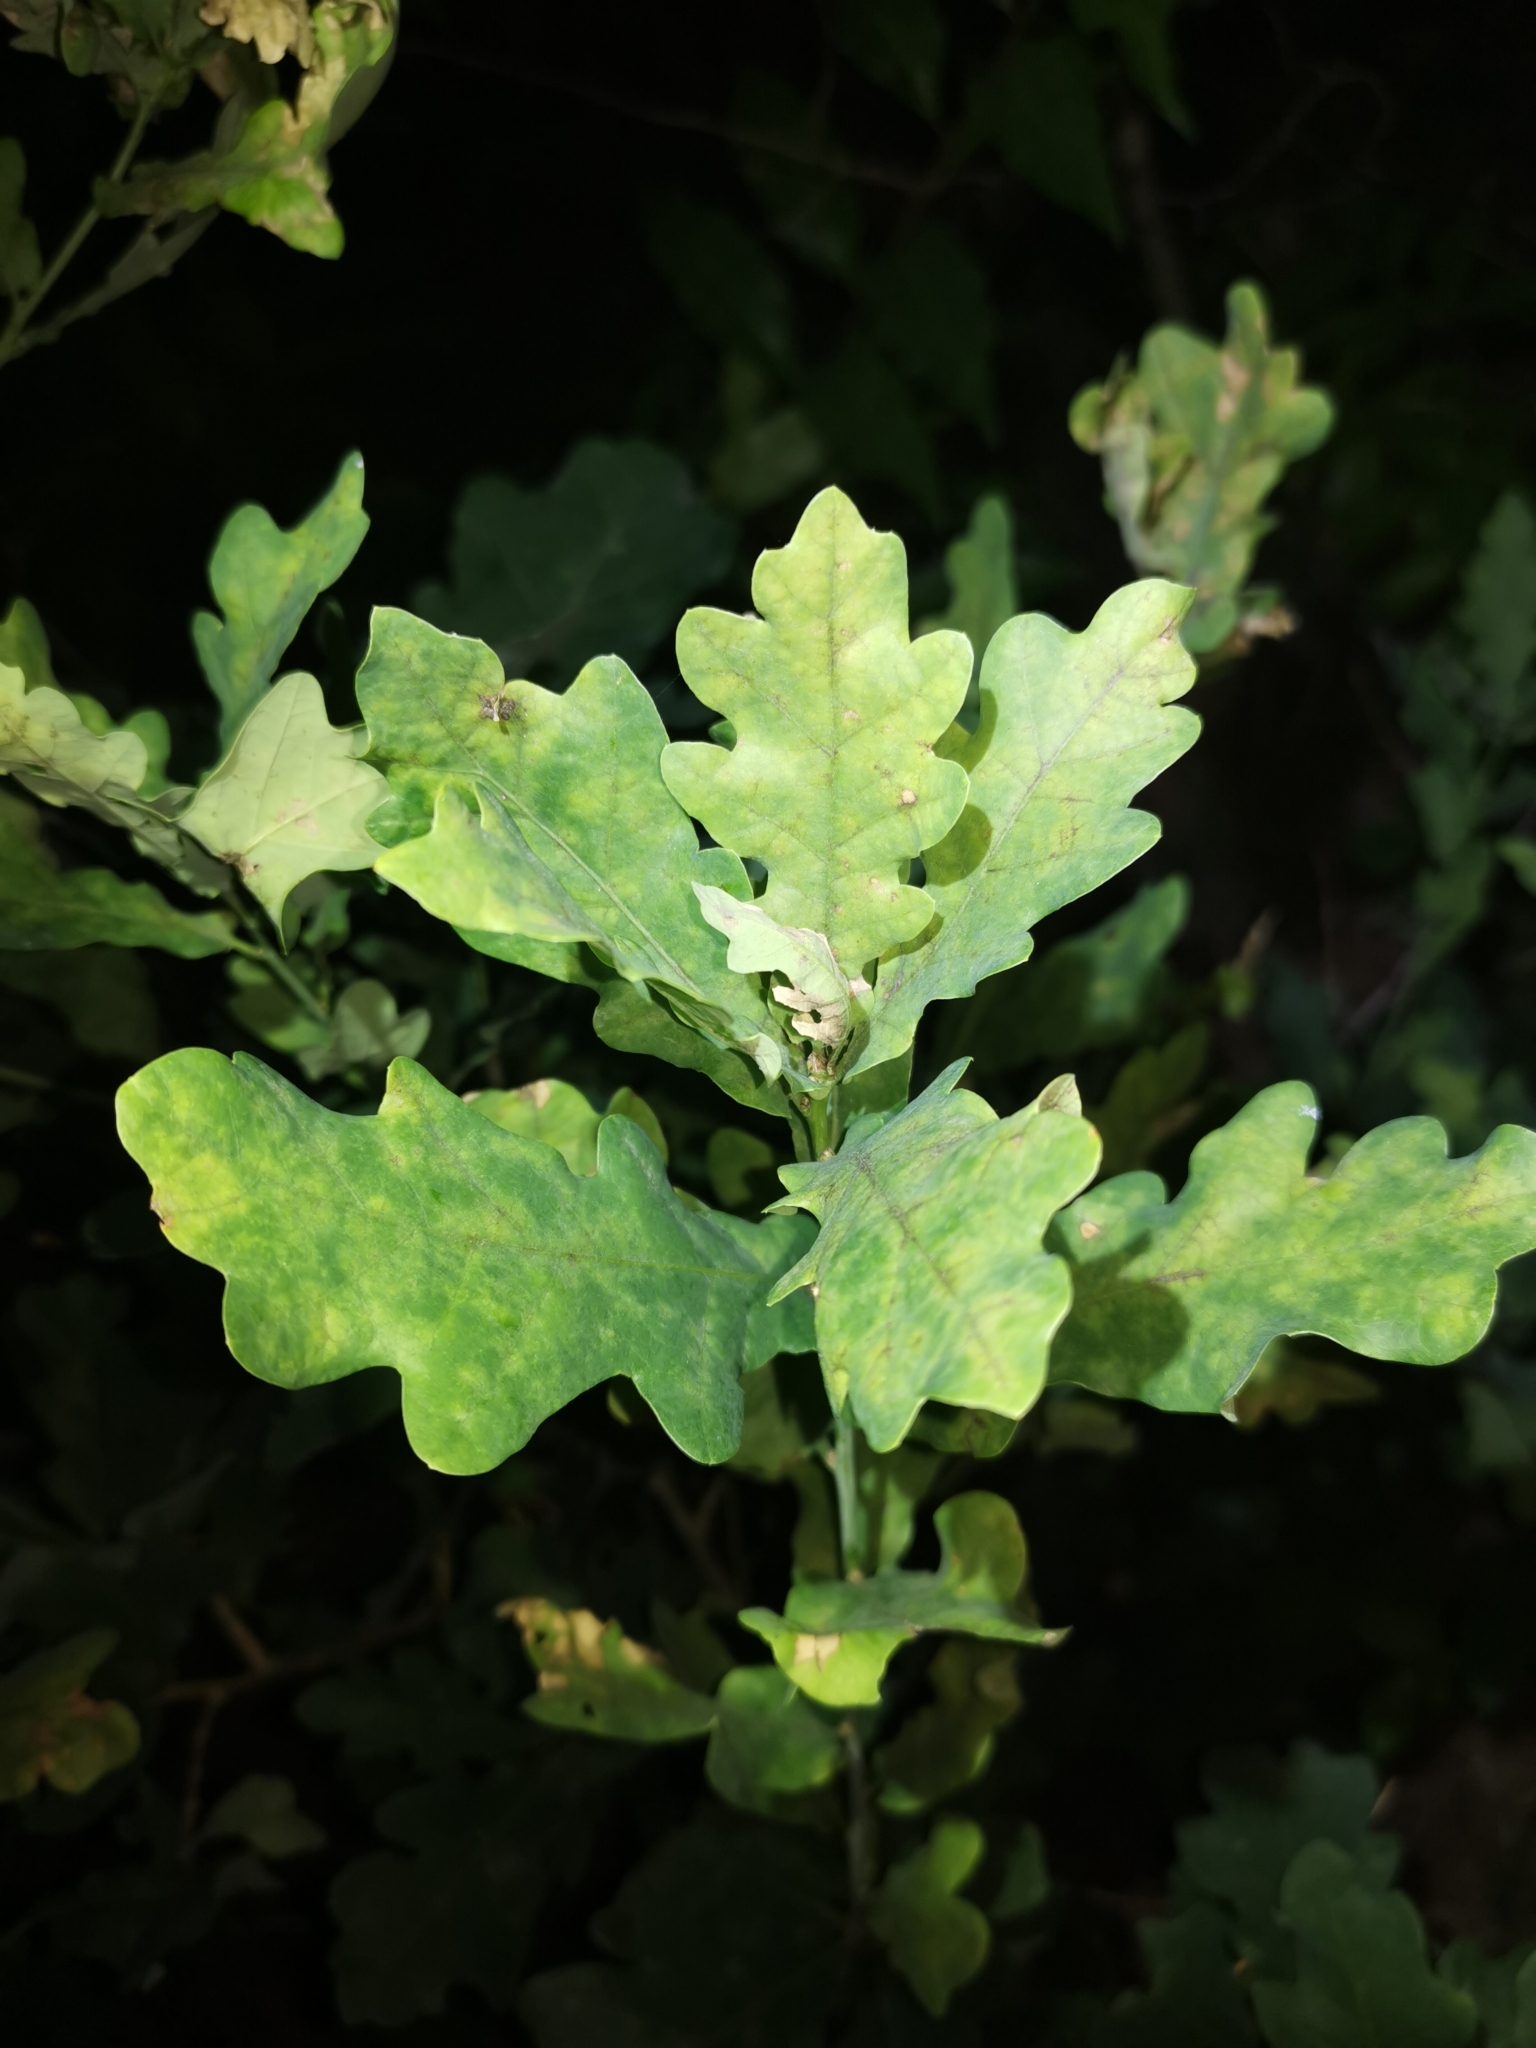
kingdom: Plantae
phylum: Tracheophyta
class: Magnoliopsida
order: Fagales
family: Fagaceae
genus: Quercus
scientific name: Quercus robur
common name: Pedunculate oak
